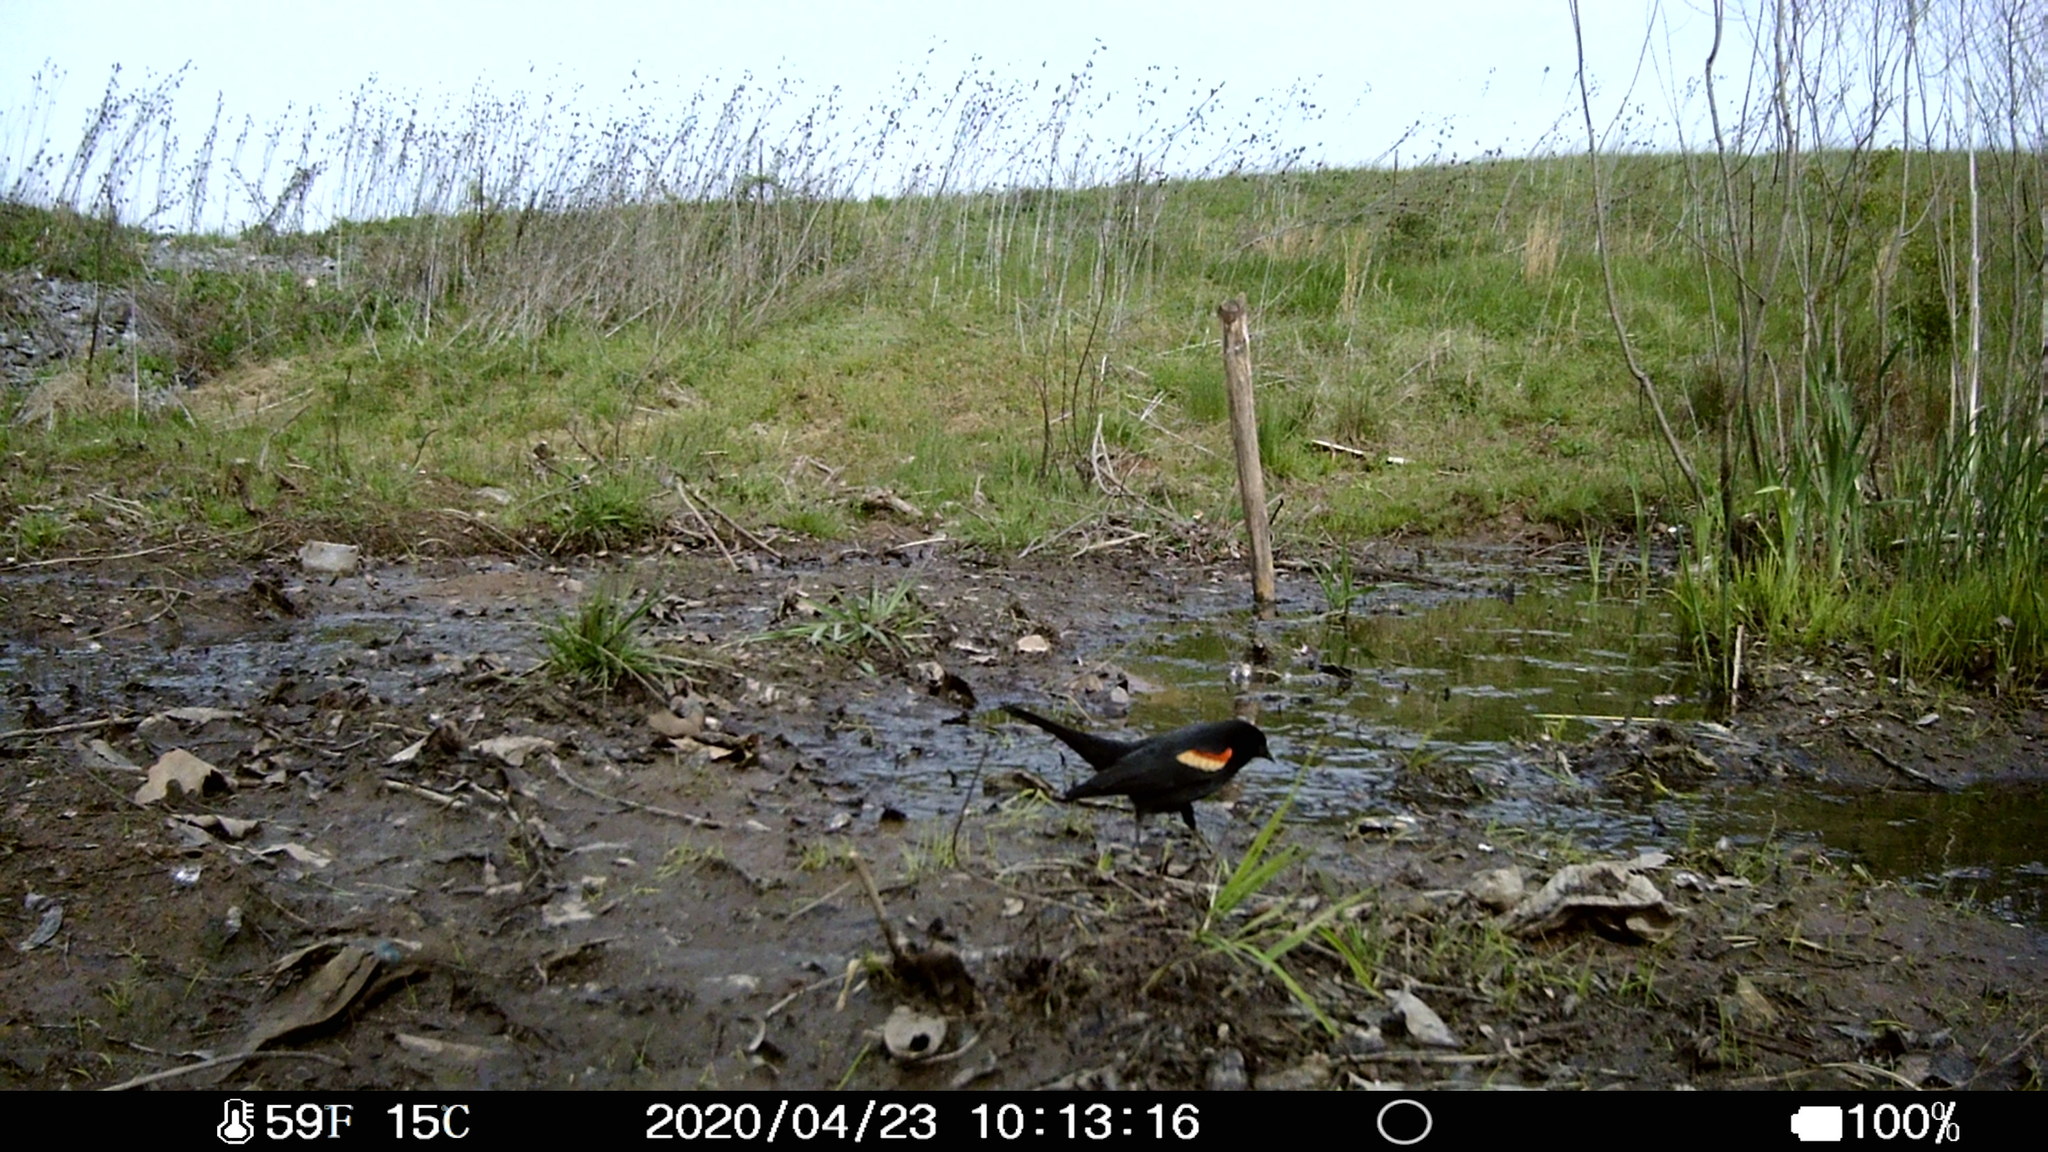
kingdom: Animalia
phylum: Chordata
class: Aves
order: Passeriformes
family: Icteridae
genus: Agelaius
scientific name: Agelaius phoeniceus
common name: Red-winged blackbird
